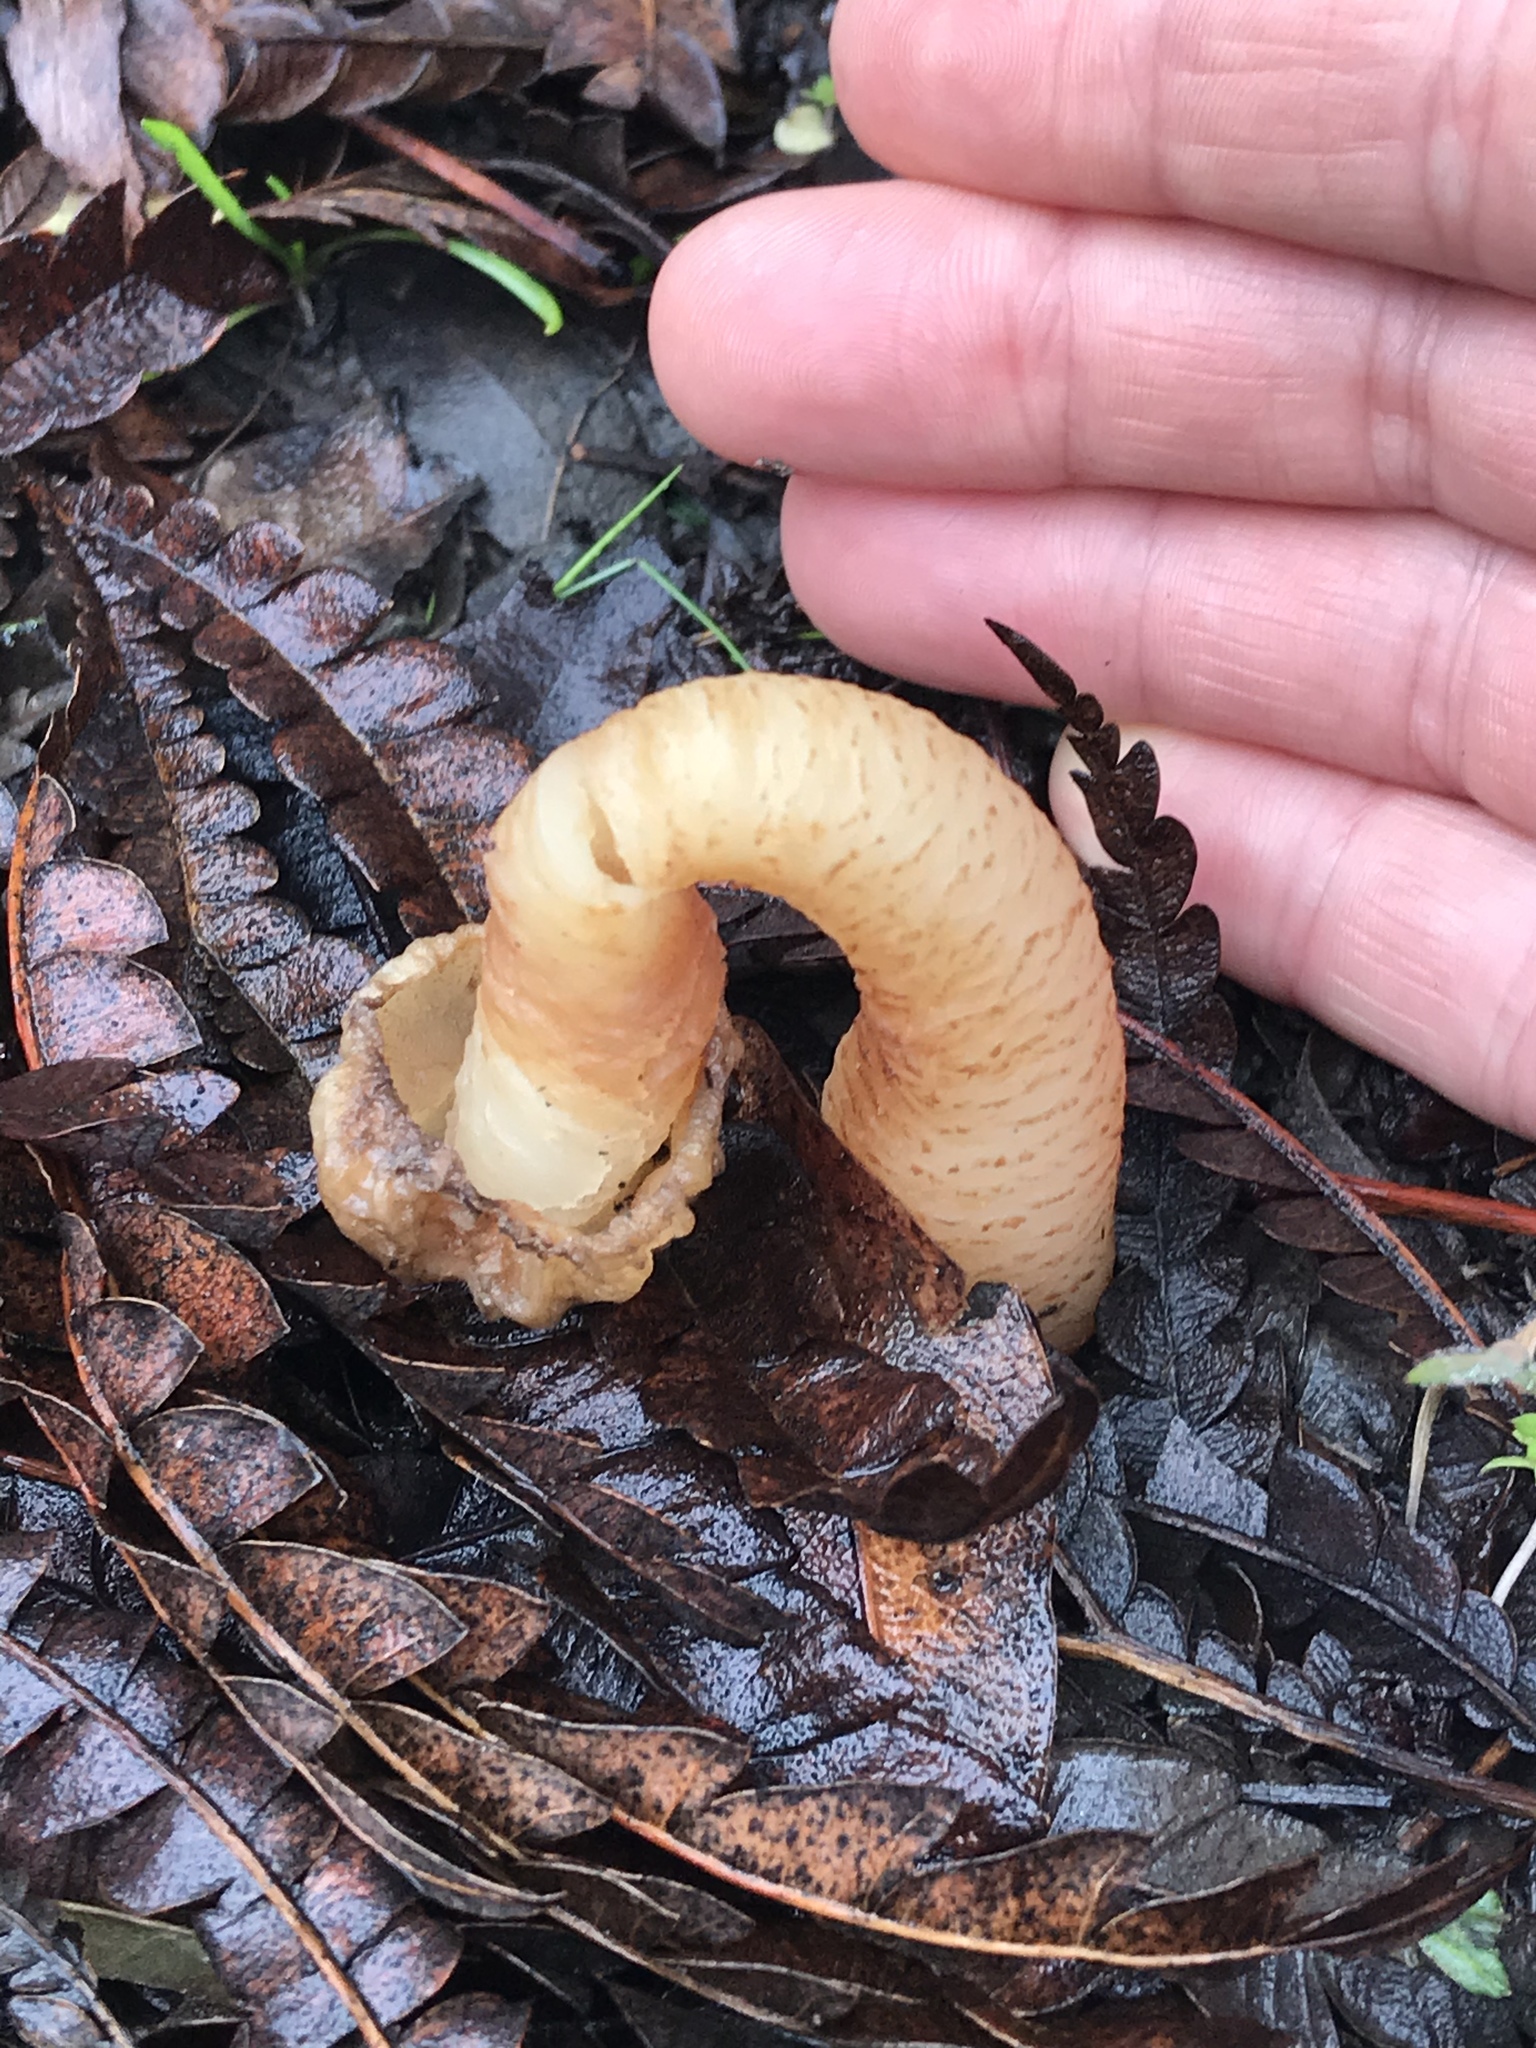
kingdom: Fungi
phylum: Ascomycota
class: Pezizomycetes
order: Pezizales
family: Morchellaceae
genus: Verpa
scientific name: Verpa bohemica
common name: Wrinkled thimble morel
